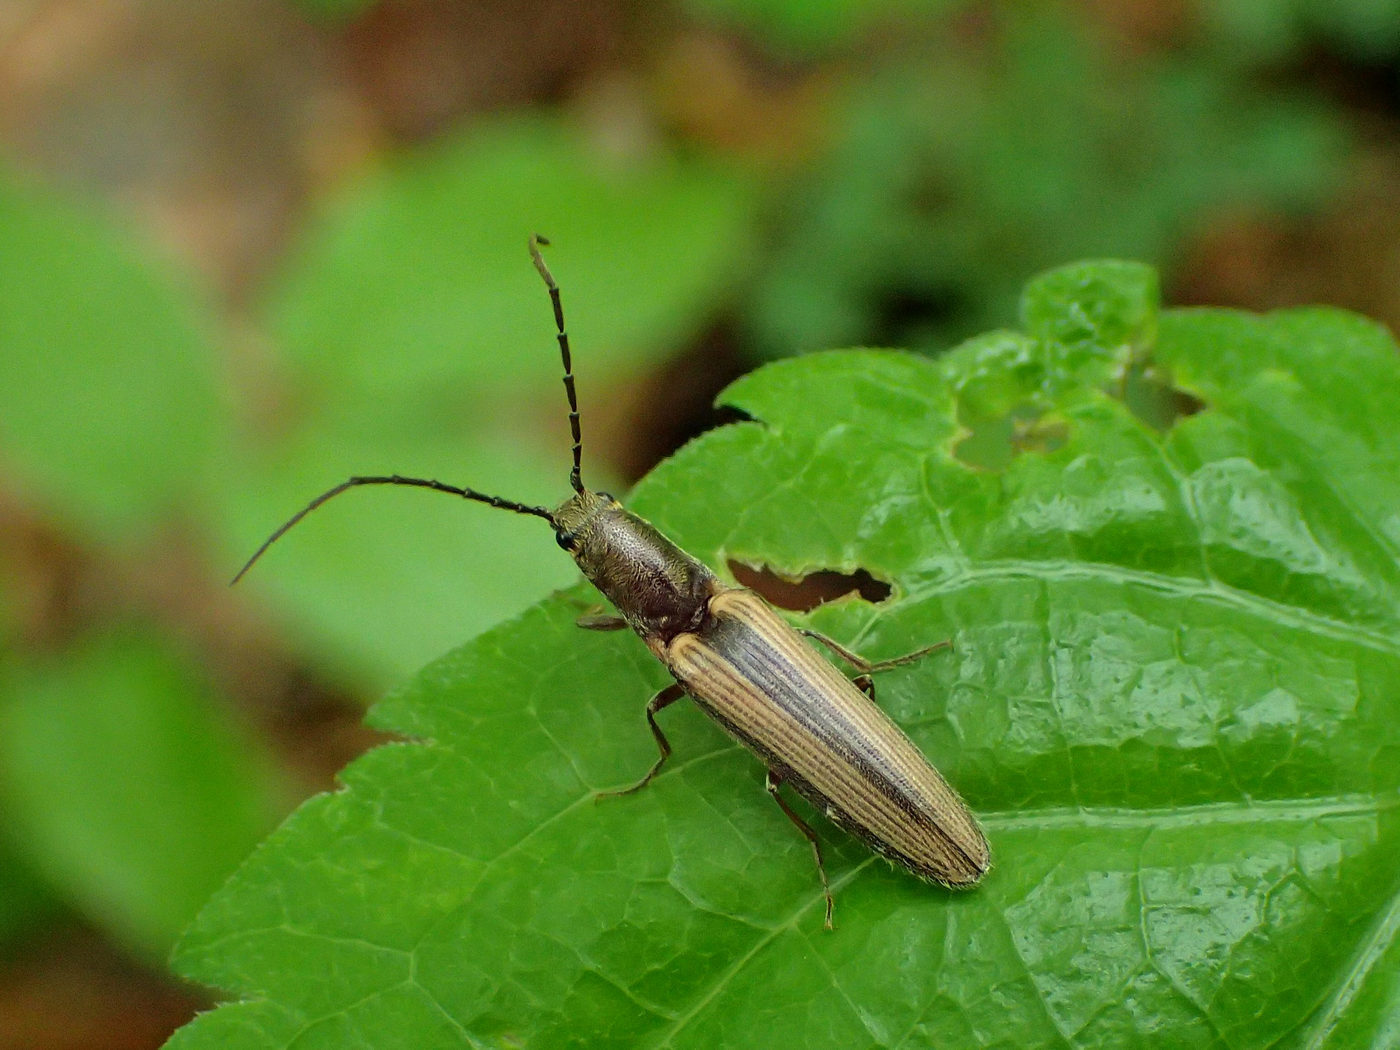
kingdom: Animalia
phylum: Arthropoda
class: Insecta
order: Coleoptera
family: Elateridae
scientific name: Elateridae
